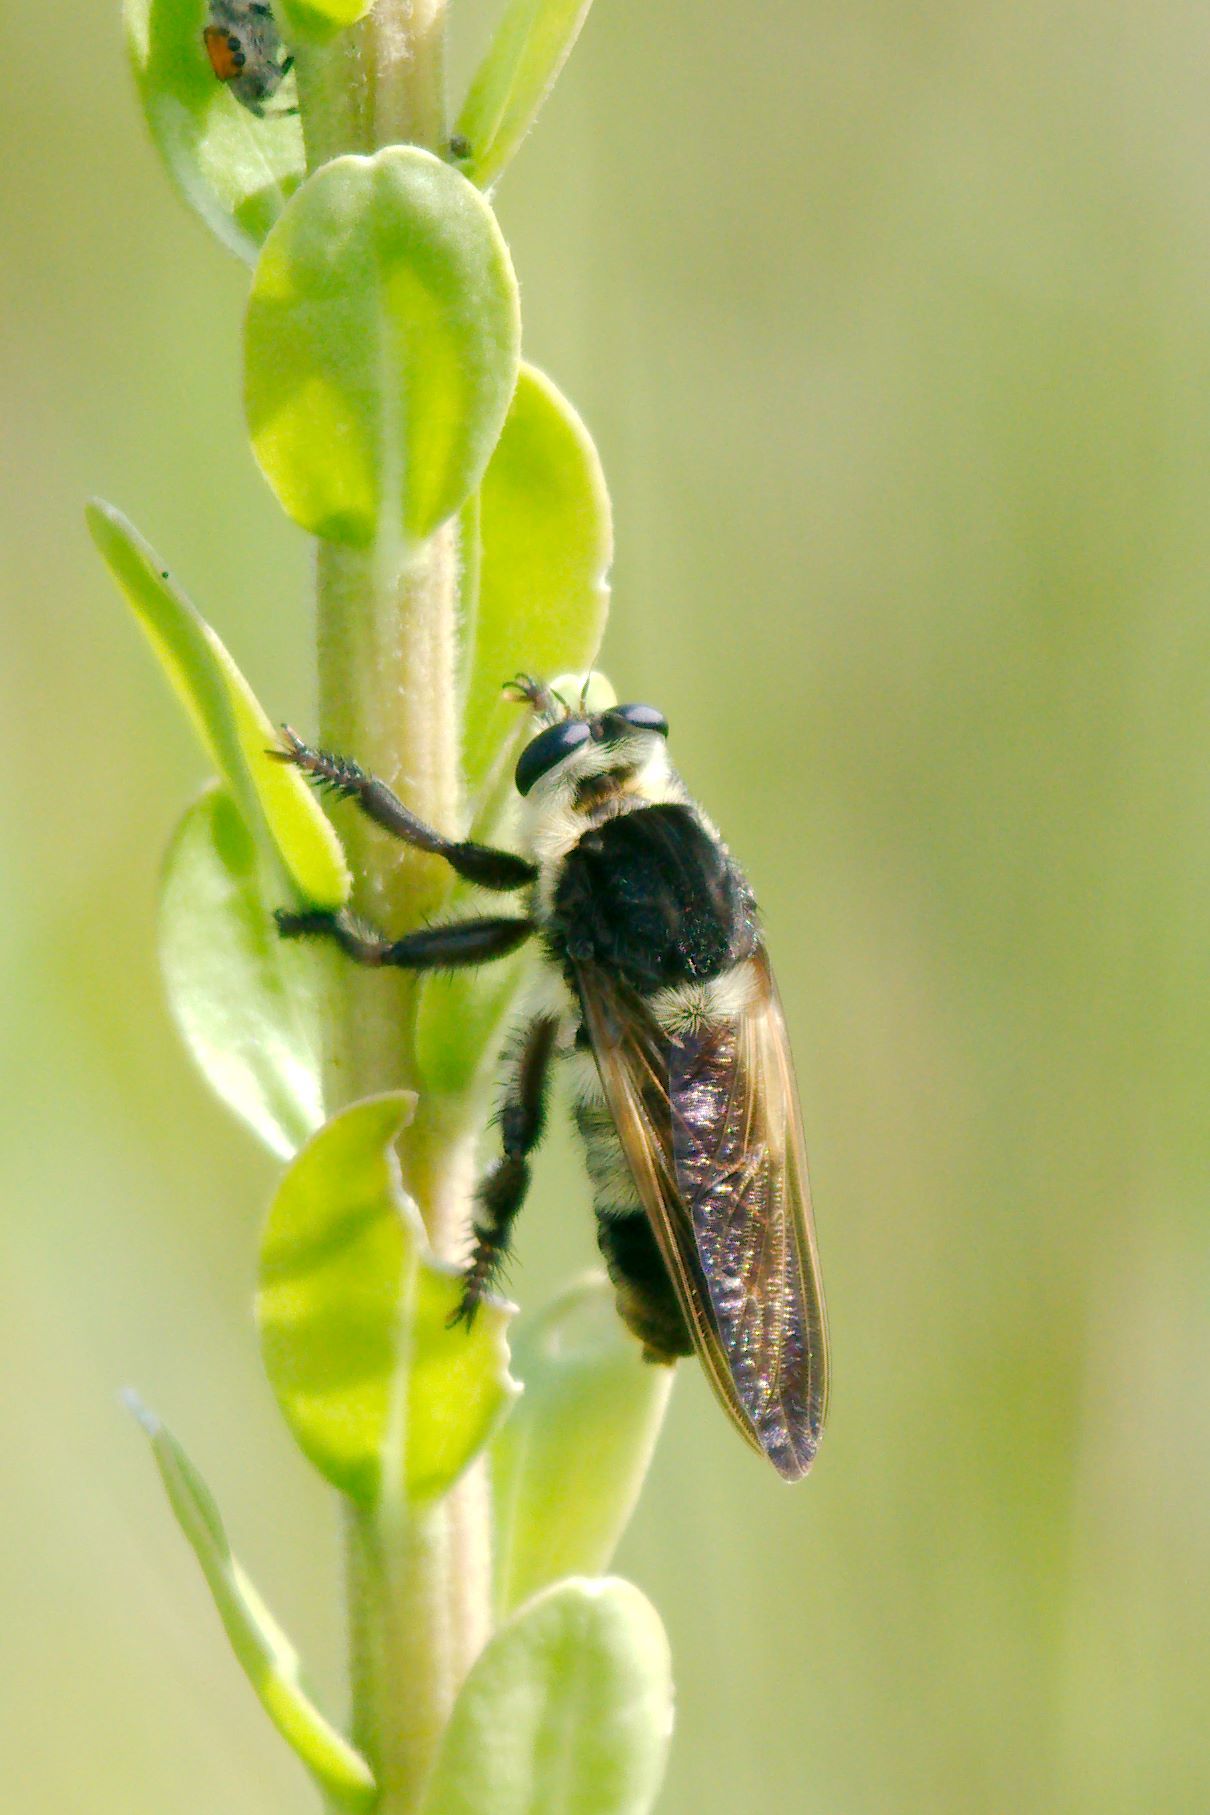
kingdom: Animalia
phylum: Arthropoda
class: Insecta
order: Diptera
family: Asilidae
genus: Mallophora
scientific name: Mallophora bomboides
